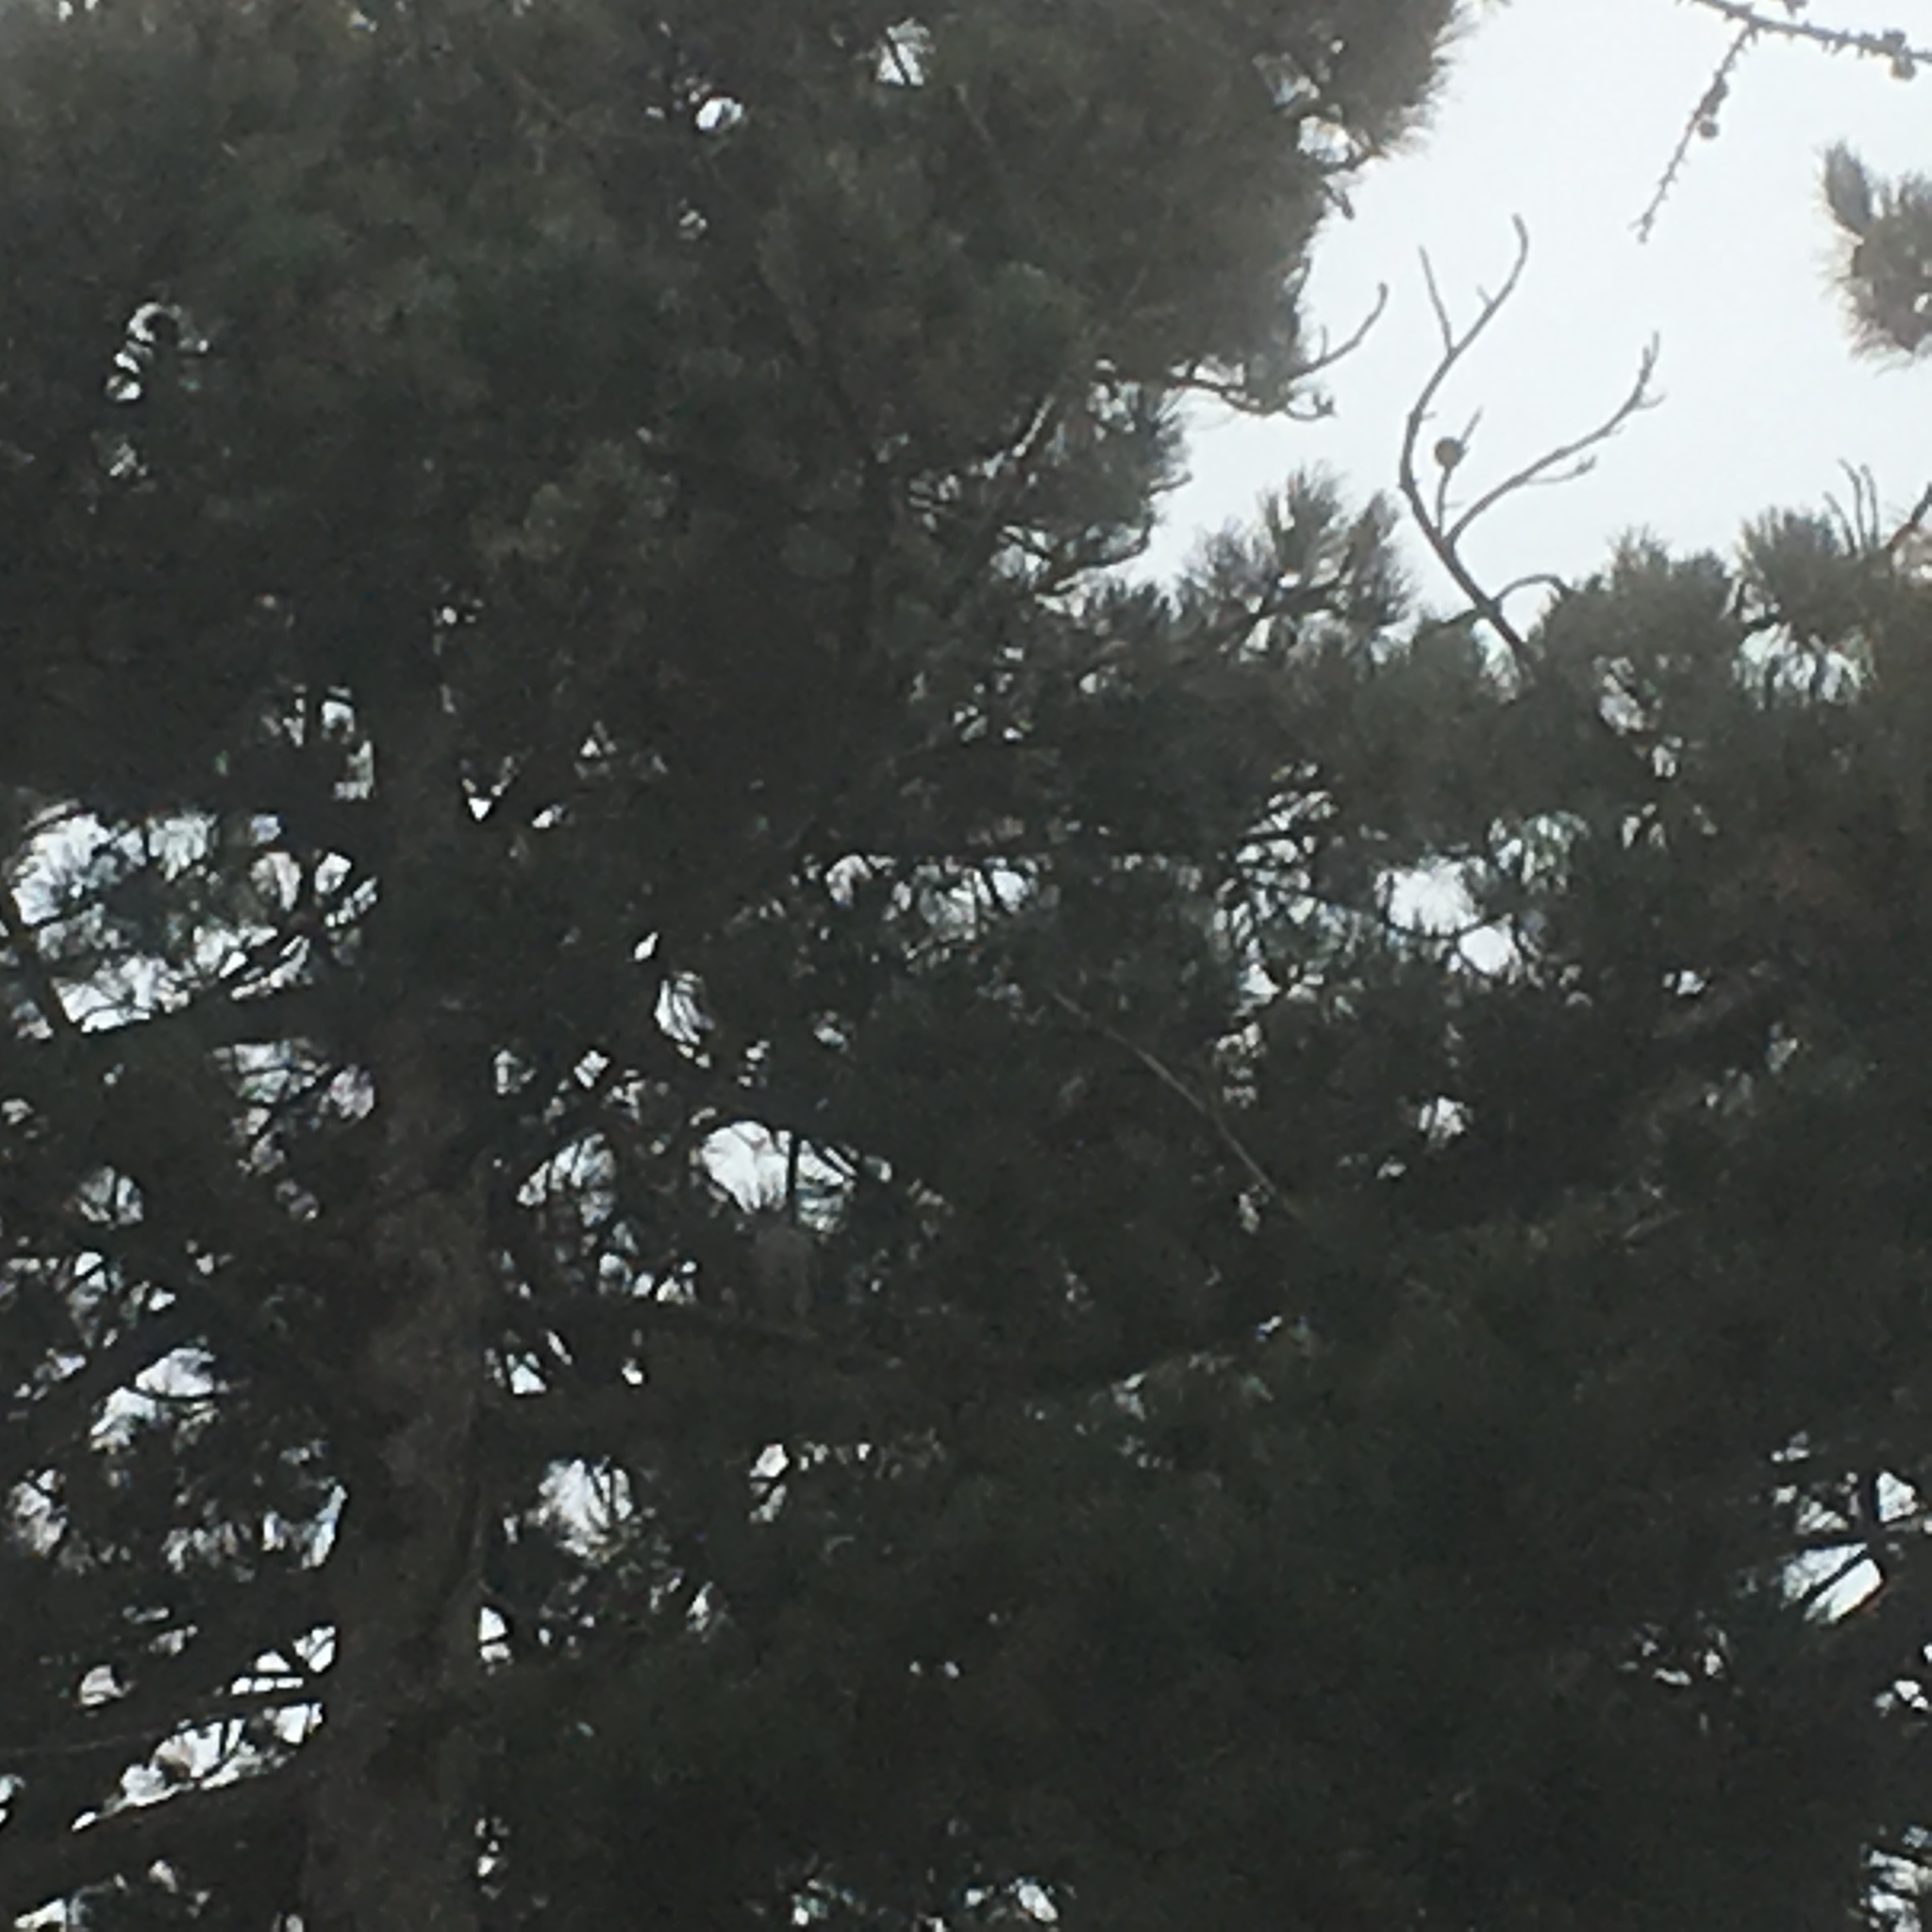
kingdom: Animalia
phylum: Chordata
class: Aves
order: Accipitriformes
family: Accipitridae
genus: Accipiter
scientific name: Accipiter nisus
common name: Eurasian sparrowhawk
